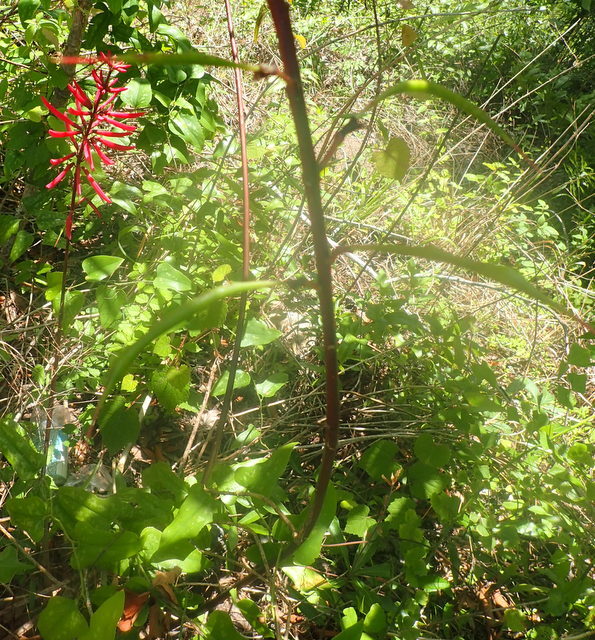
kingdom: Plantae
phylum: Tracheophyta
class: Magnoliopsida
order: Fabales
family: Fabaceae
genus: Erythrina
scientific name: Erythrina herbacea
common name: Coral-bean
